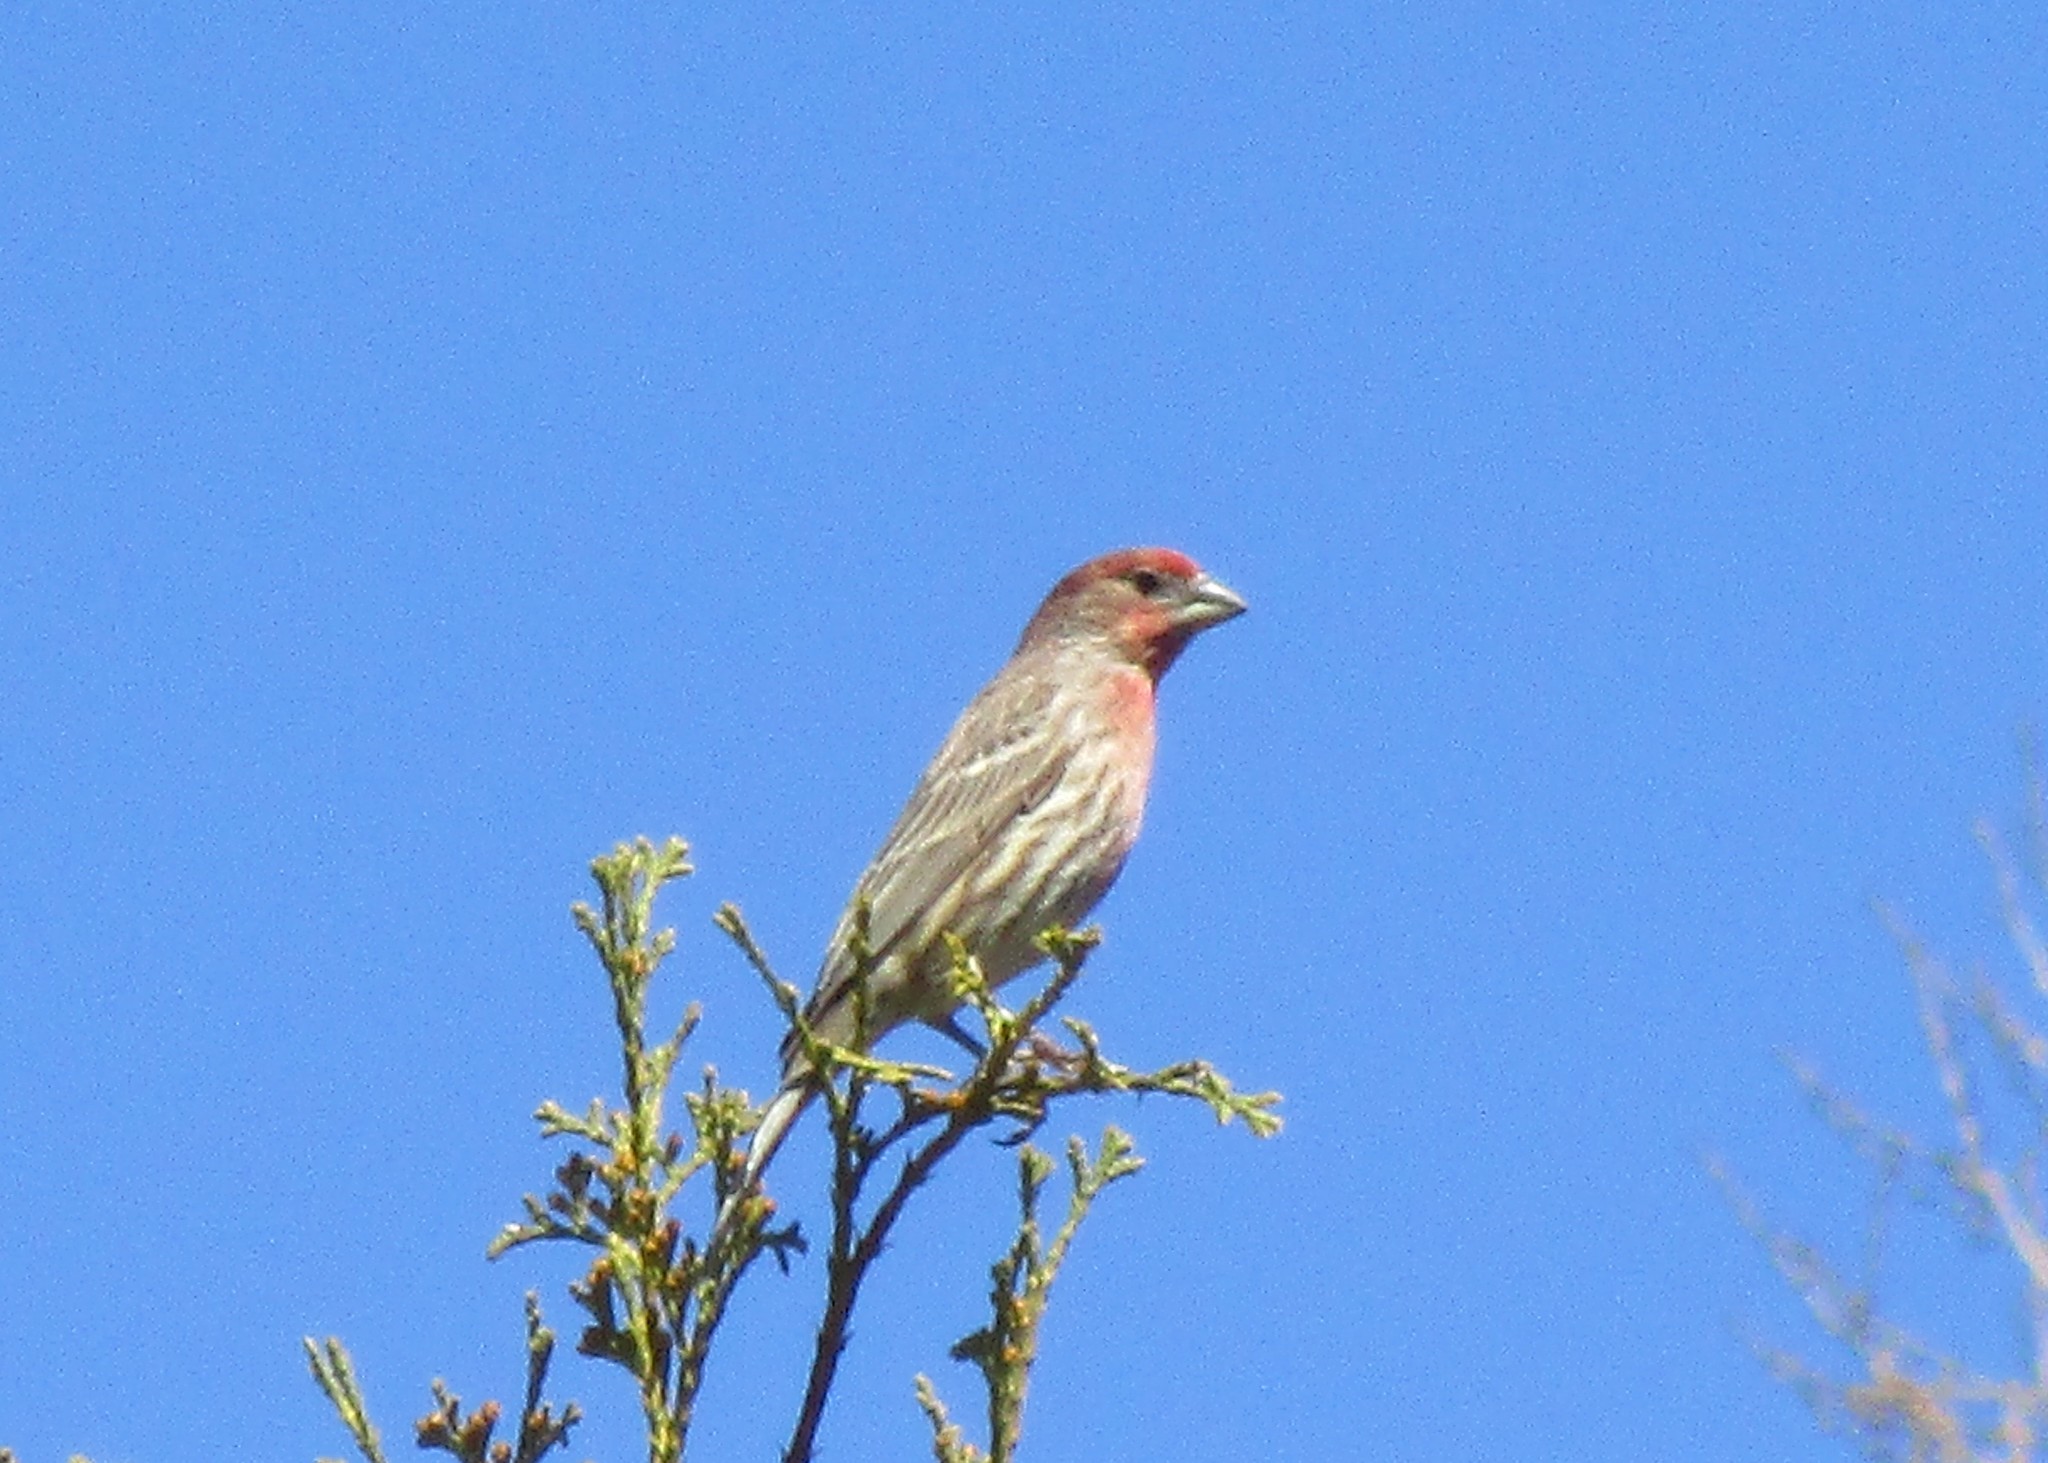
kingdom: Animalia
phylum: Chordata
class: Aves
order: Passeriformes
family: Fringillidae
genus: Haemorhous
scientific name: Haemorhous mexicanus
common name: House finch
